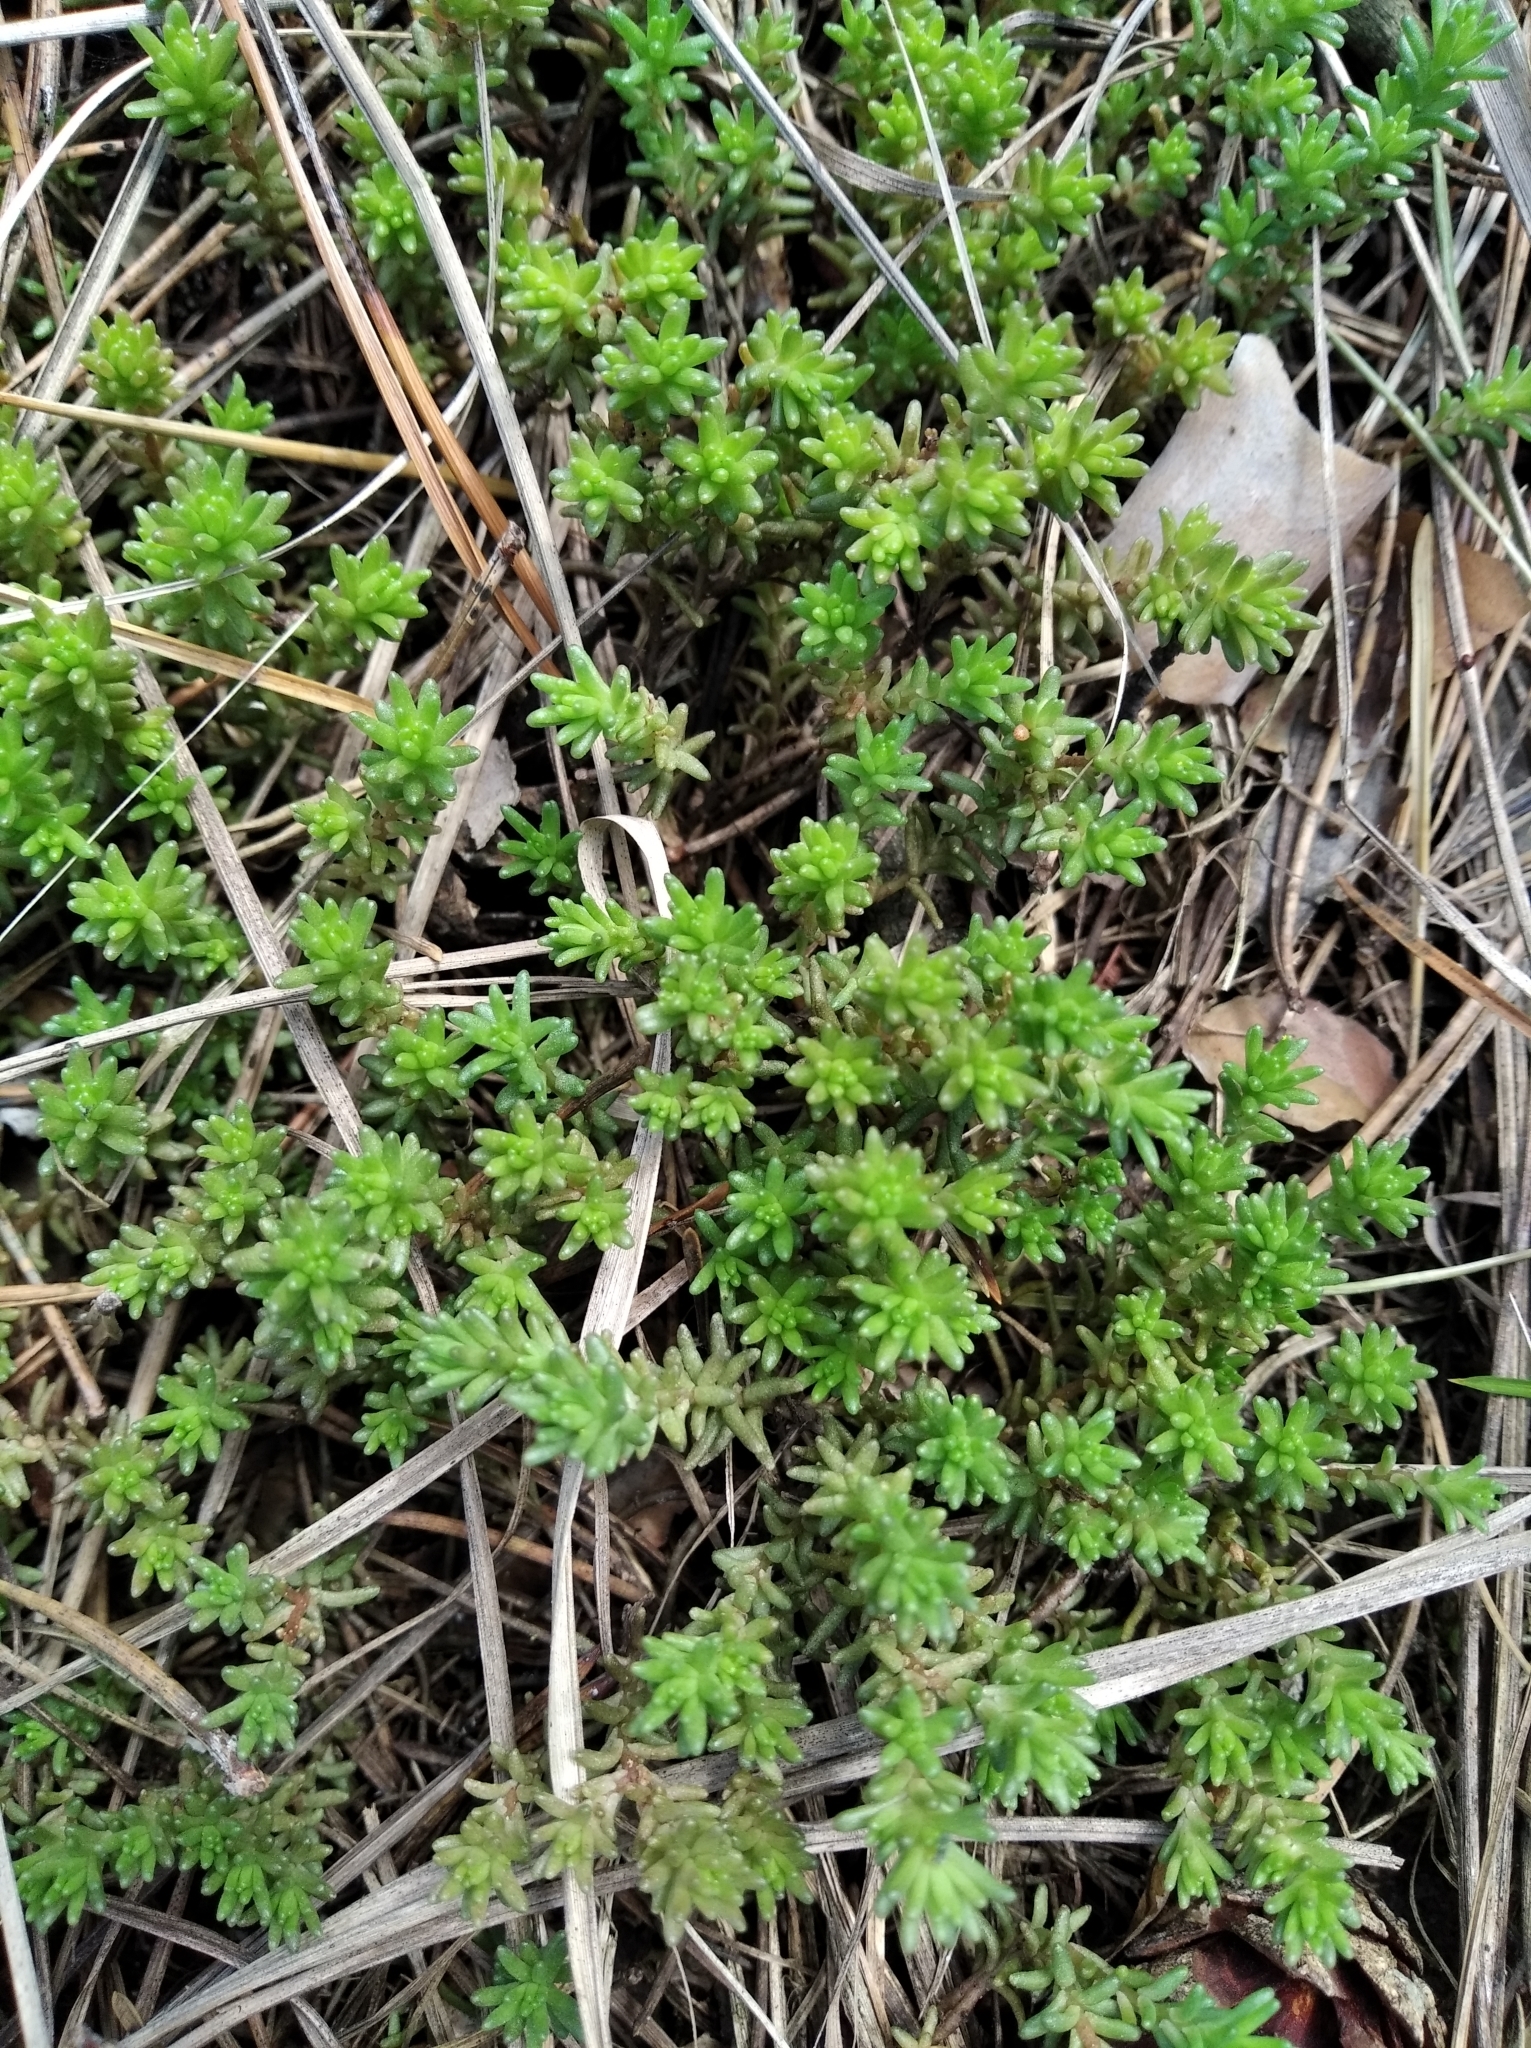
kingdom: Plantae
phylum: Tracheophyta
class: Magnoliopsida
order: Saxifragales
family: Crassulaceae
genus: Sedum
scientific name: Sedum sexangulare
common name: Tasteless stonecrop
